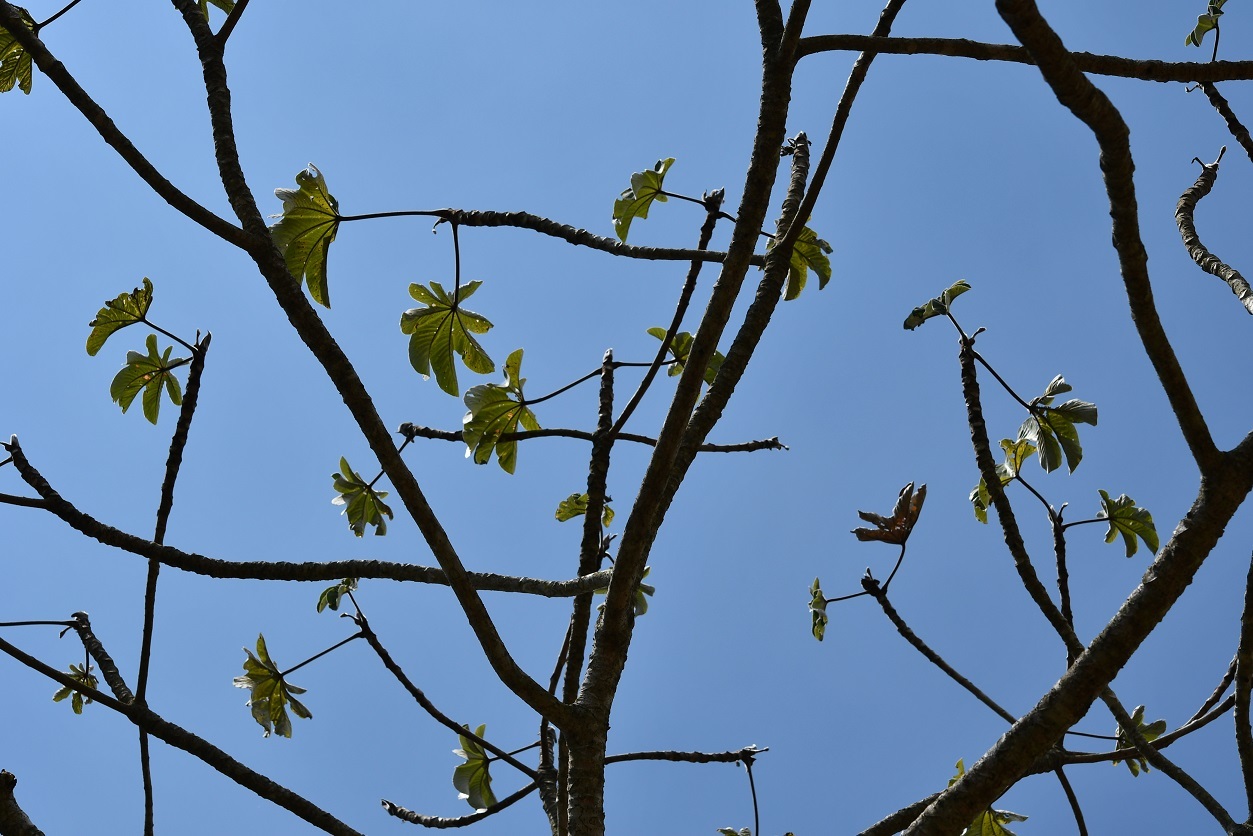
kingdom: Plantae
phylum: Tracheophyta
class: Magnoliopsida
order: Rosales
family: Urticaceae
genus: Cecropia
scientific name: Cecropia peltata
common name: Trumpet-tree
